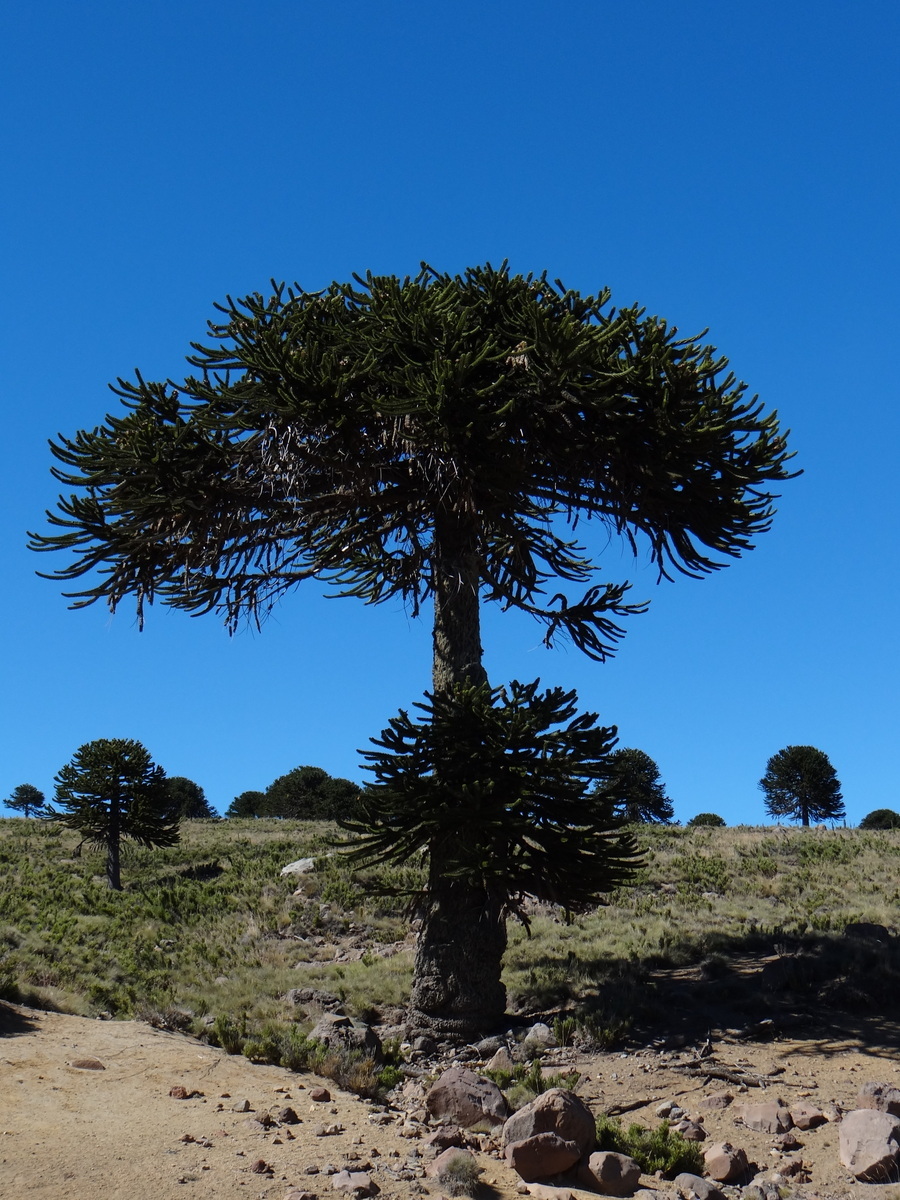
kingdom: Plantae
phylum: Tracheophyta
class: Pinopsida
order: Pinales
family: Araucariaceae
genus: Araucaria
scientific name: Araucaria araucana
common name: Monkey-puzzle
